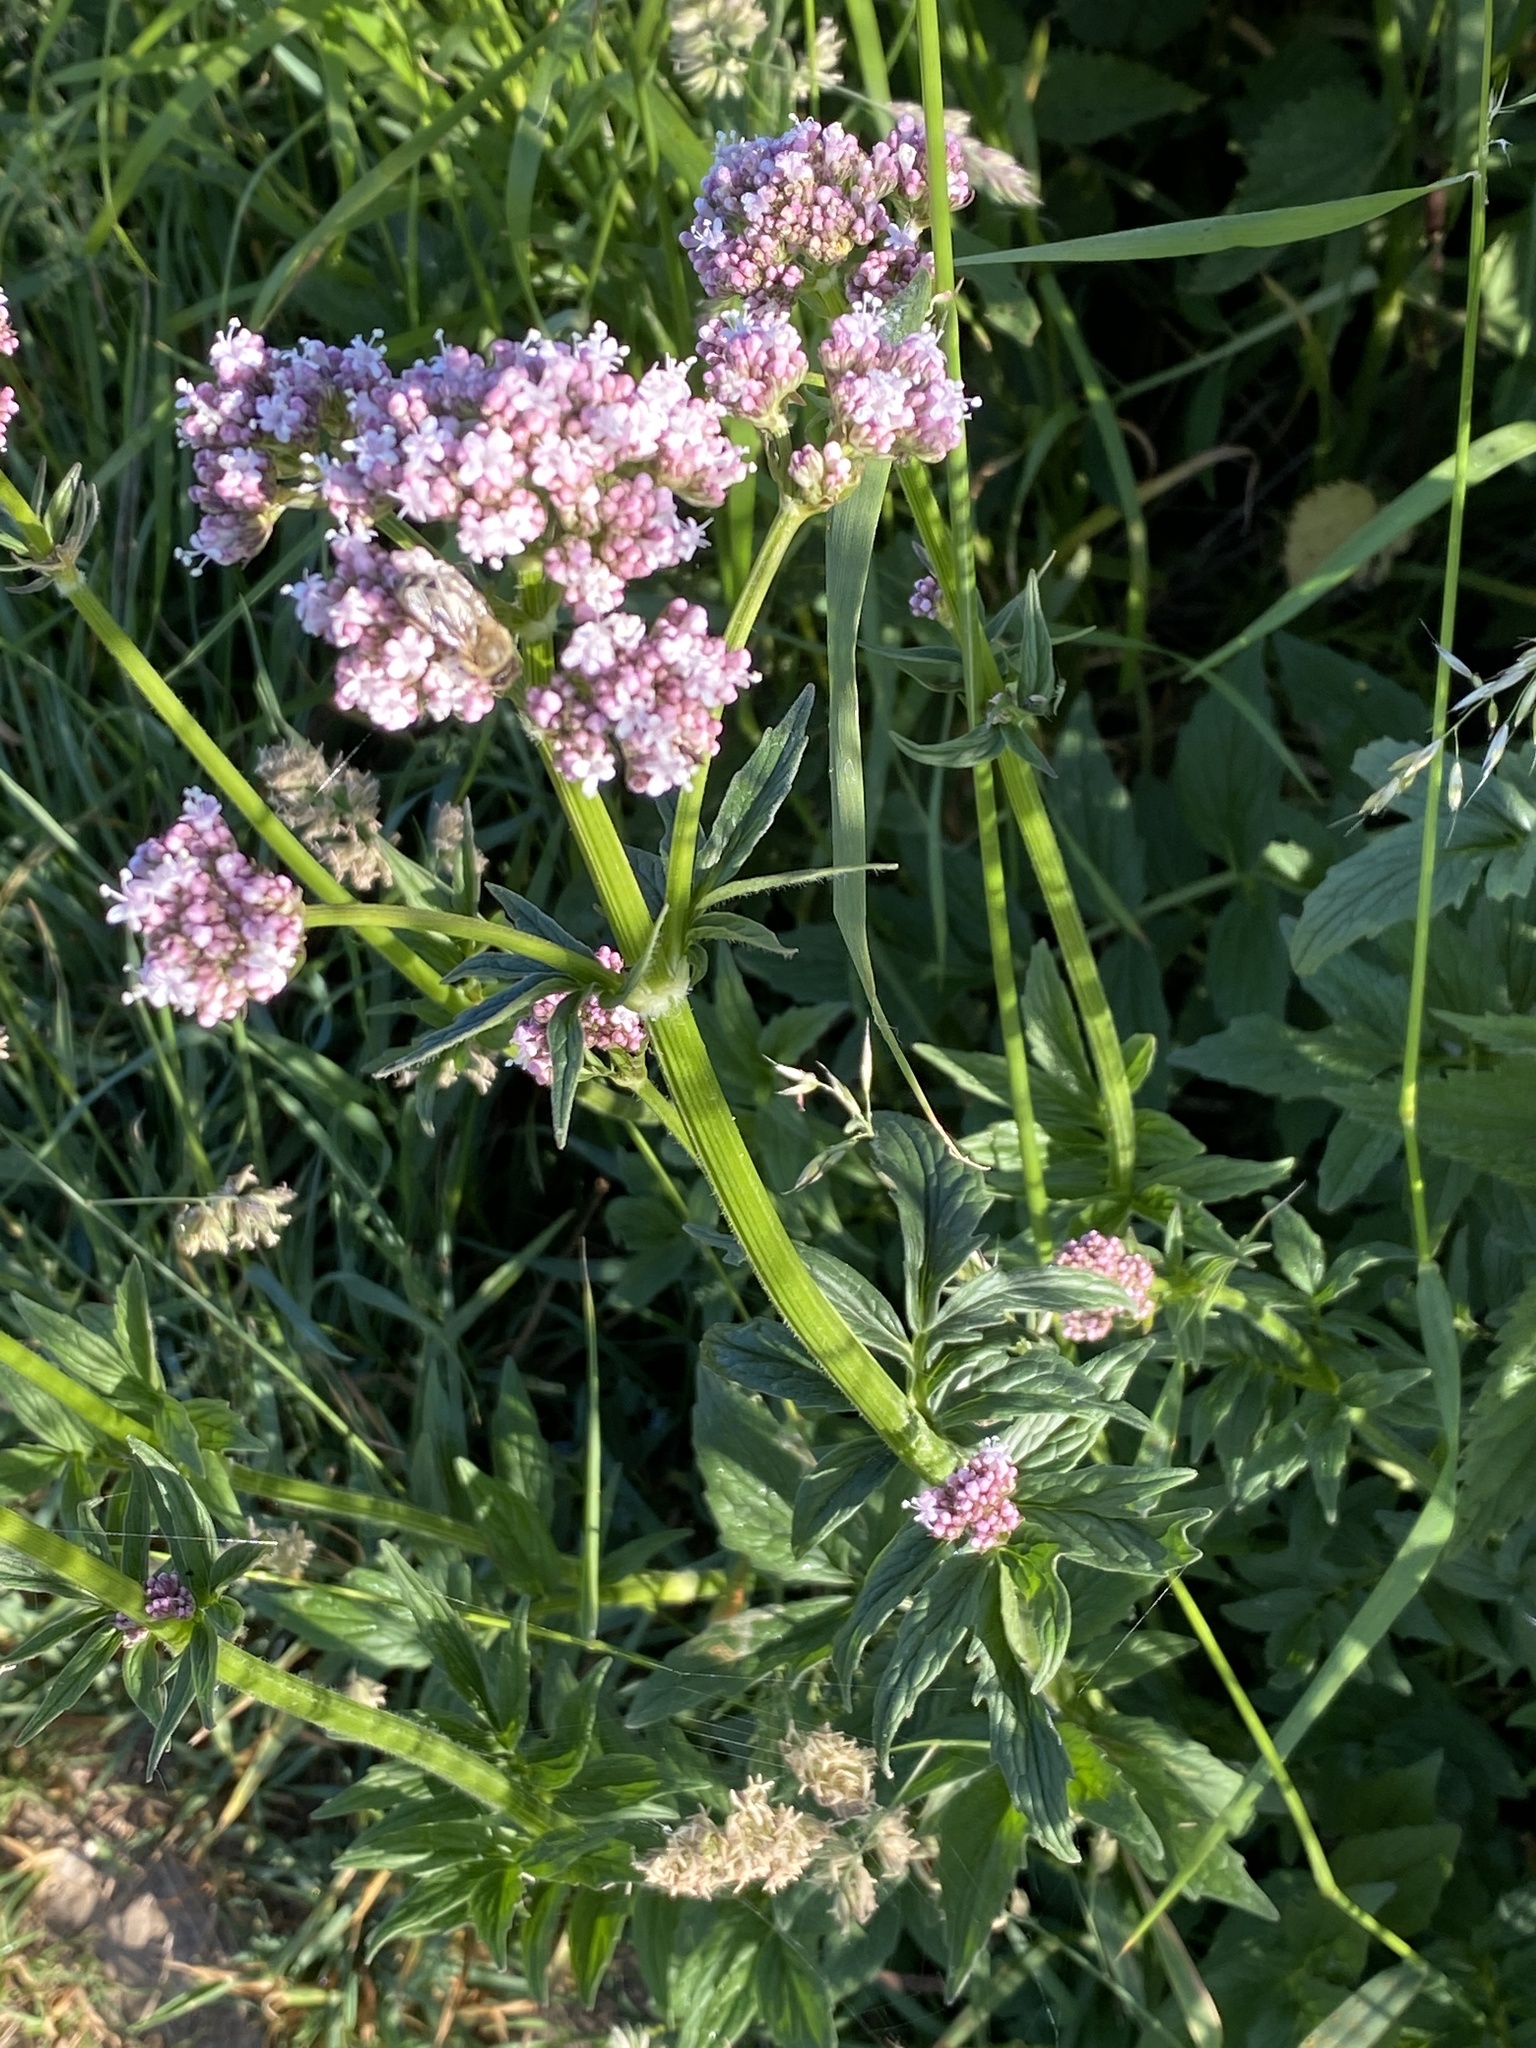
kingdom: Plantae
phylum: Tracheophyta
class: Magnoliopsida
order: Dipsacales
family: Caprifoliaceae
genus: Valeriana
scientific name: Valeriana officinalis
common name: Common valerian
